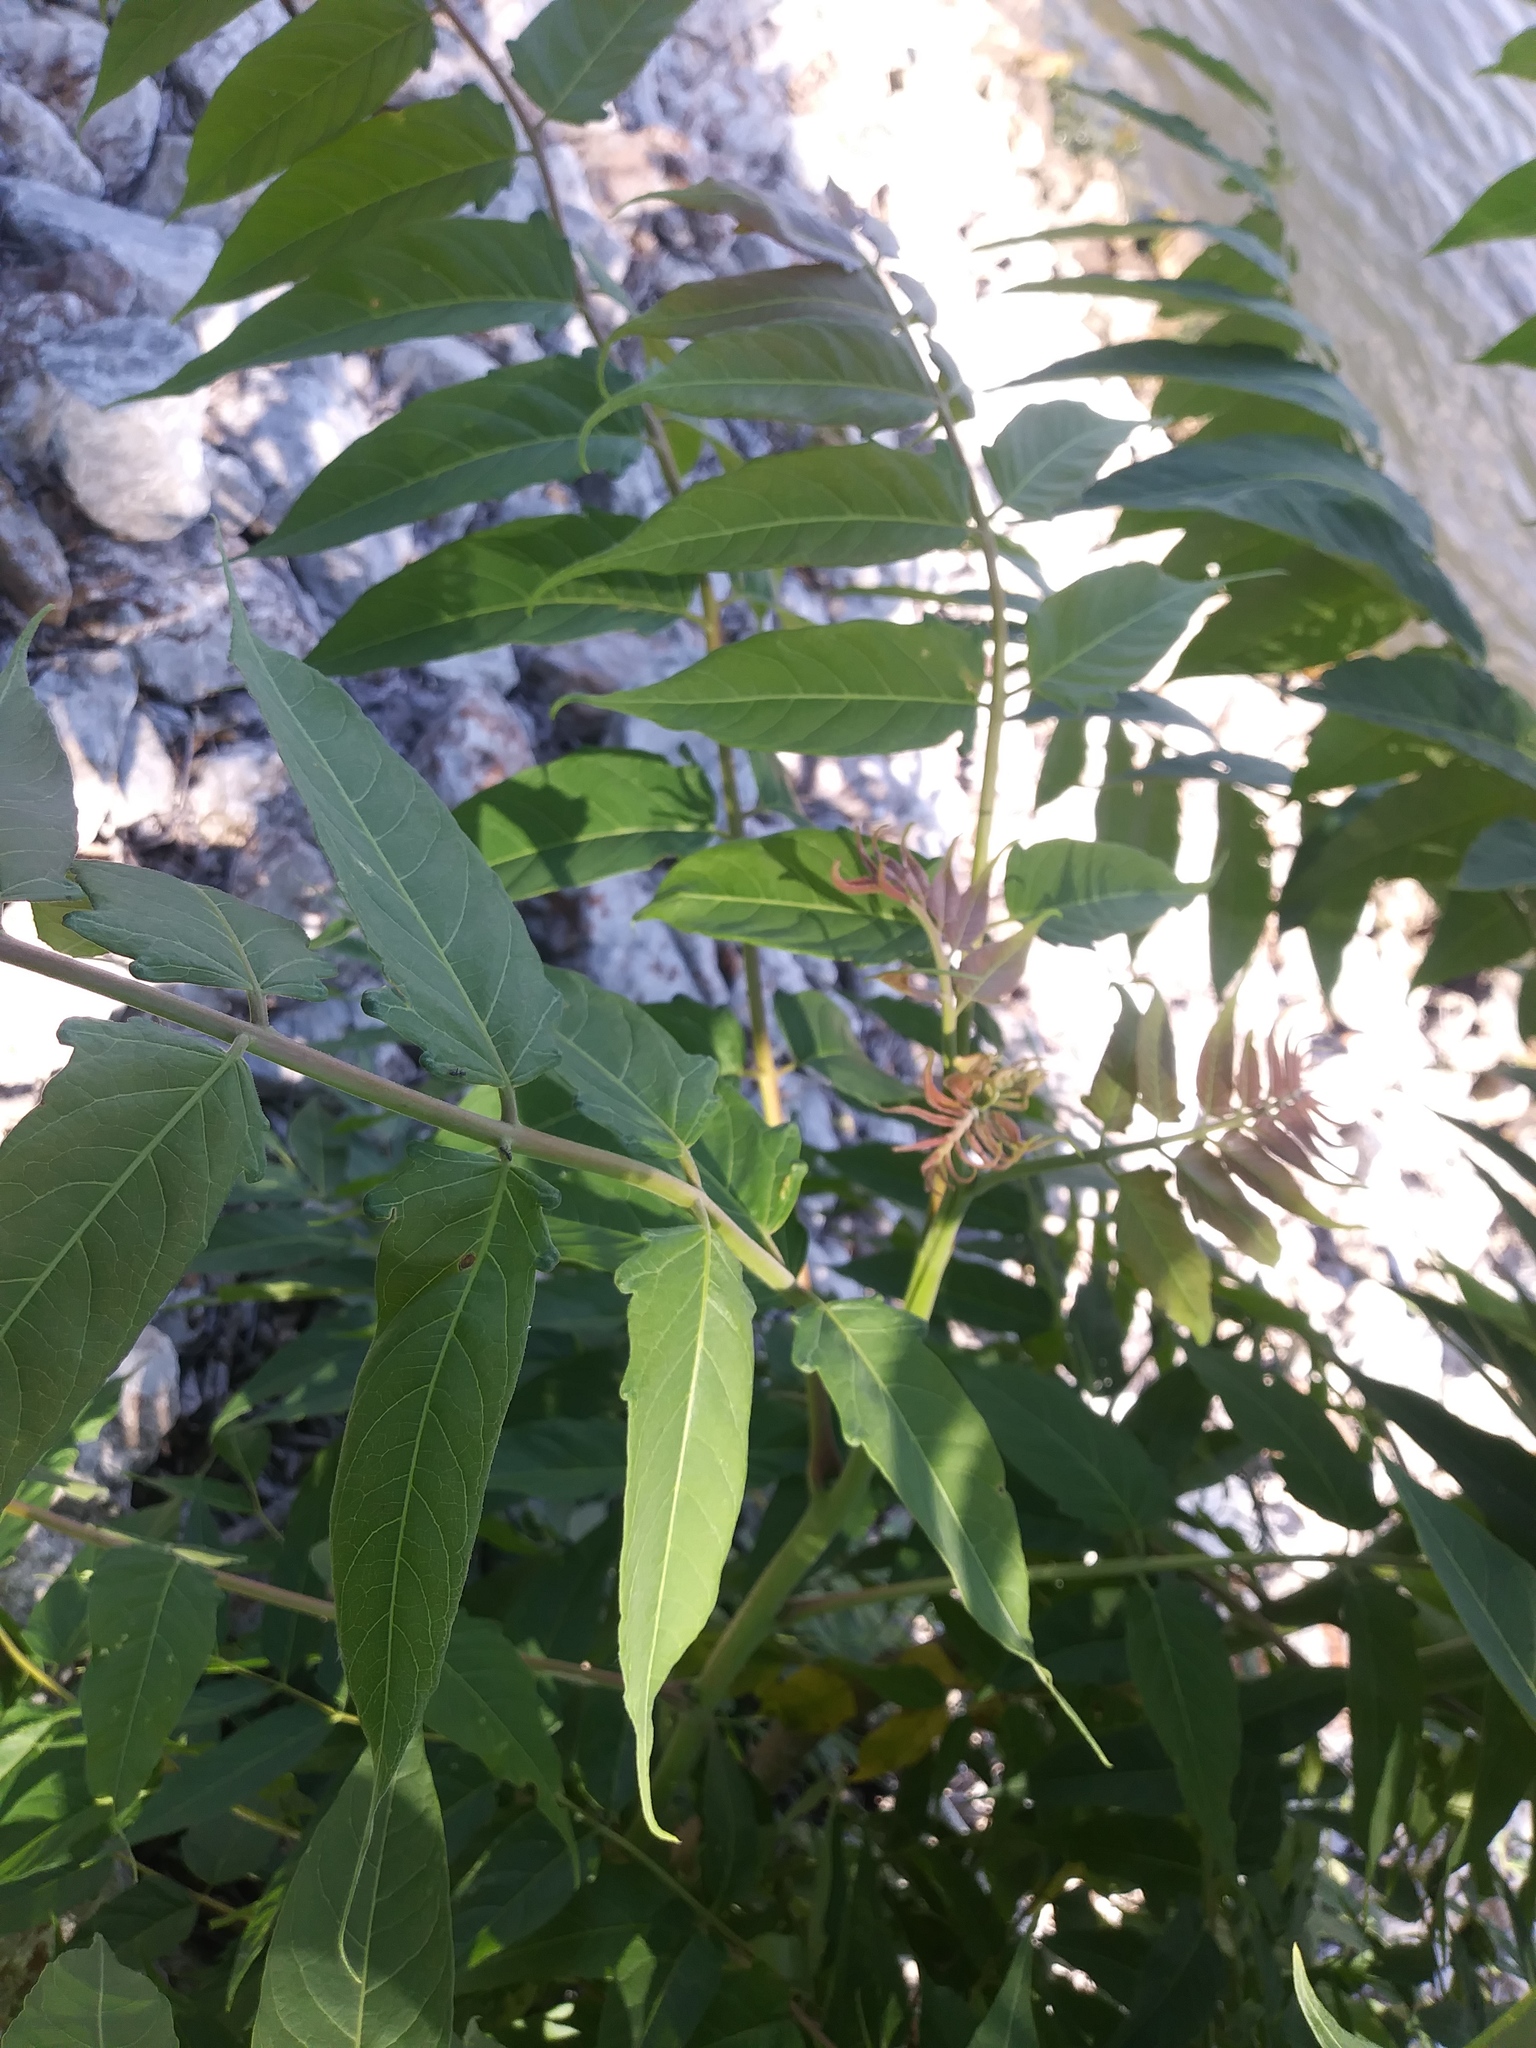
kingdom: Plantae
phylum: Tracheophyta
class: Magnoliopsida
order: Sapindales
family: Simaroubaceae
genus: Ailanthus
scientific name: Ailanthus altissima
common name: Tree-of-heaven
